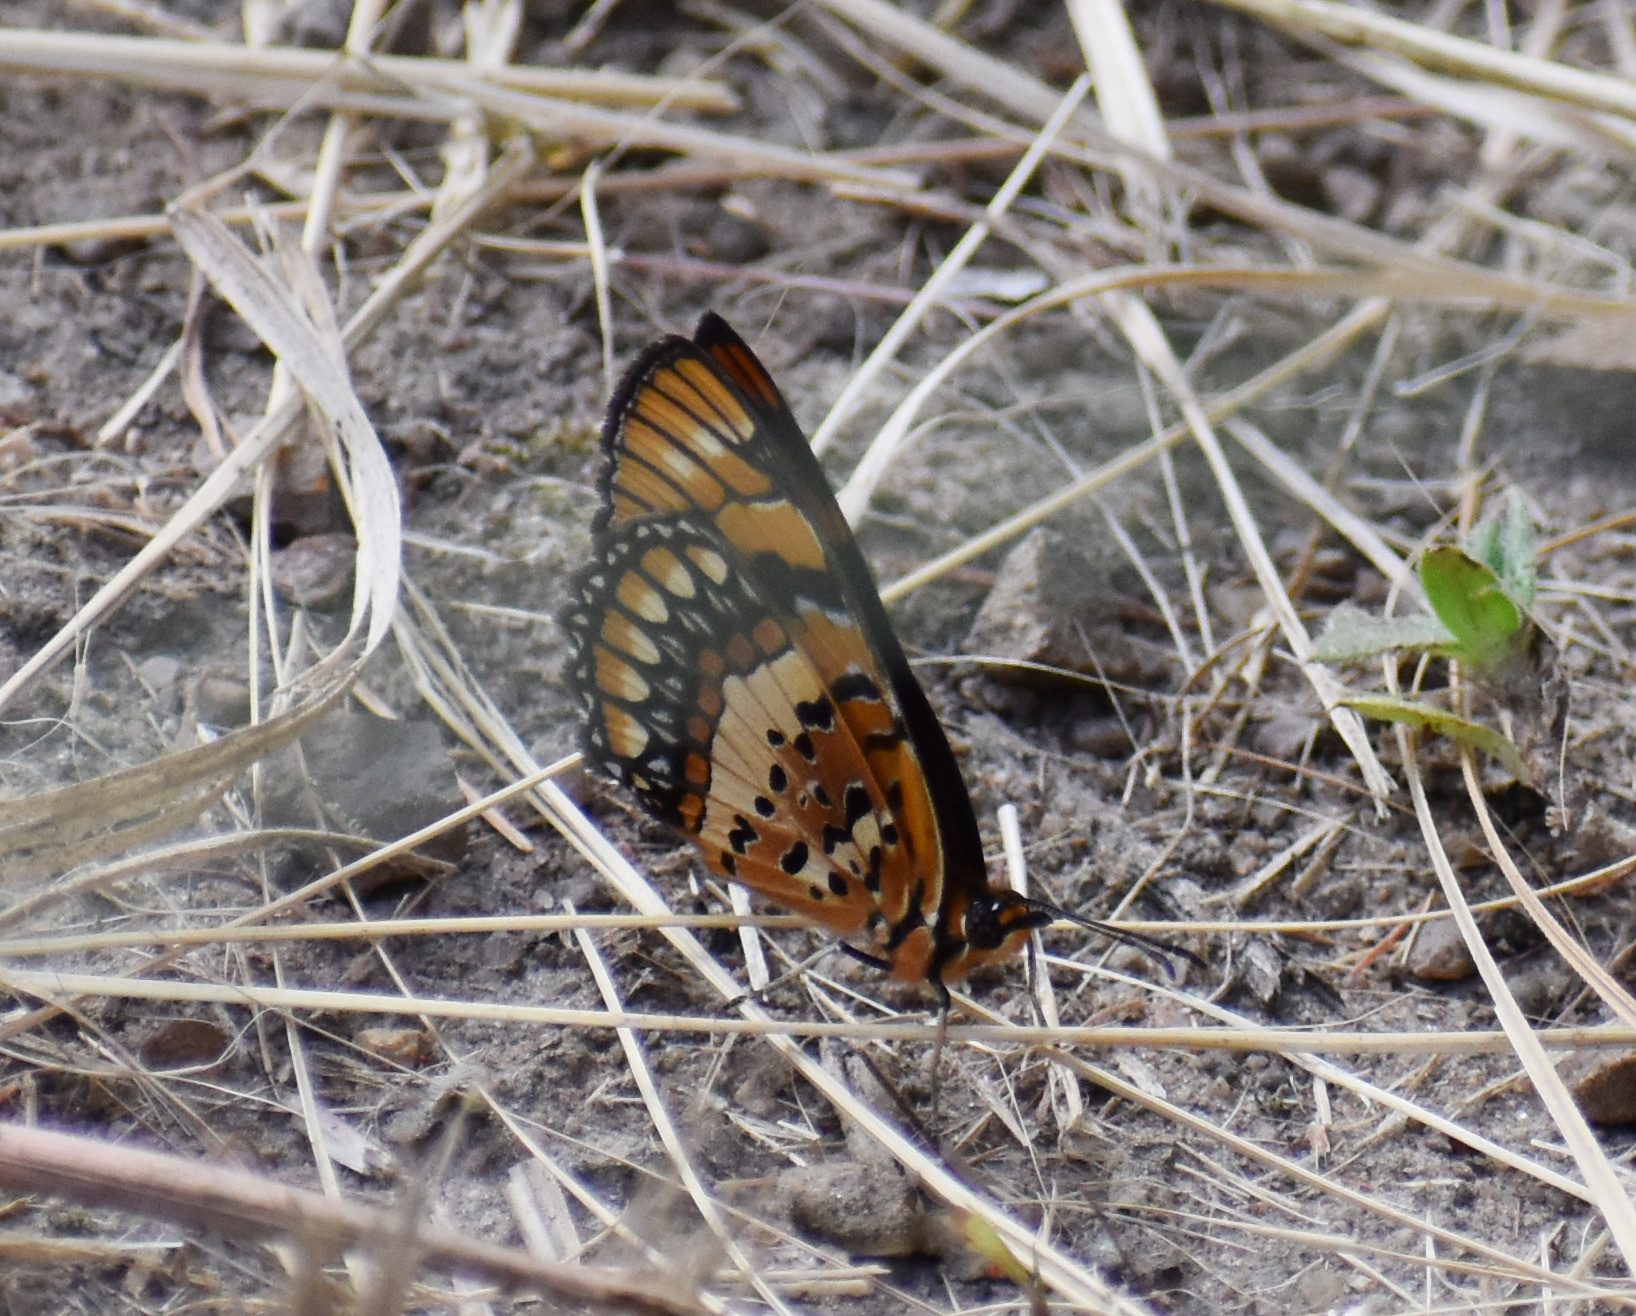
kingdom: Animalia
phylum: Arthropoda
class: Insecta
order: Lepidoptera
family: Nymphalidae
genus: Byblia
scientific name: Byblia acheloia
